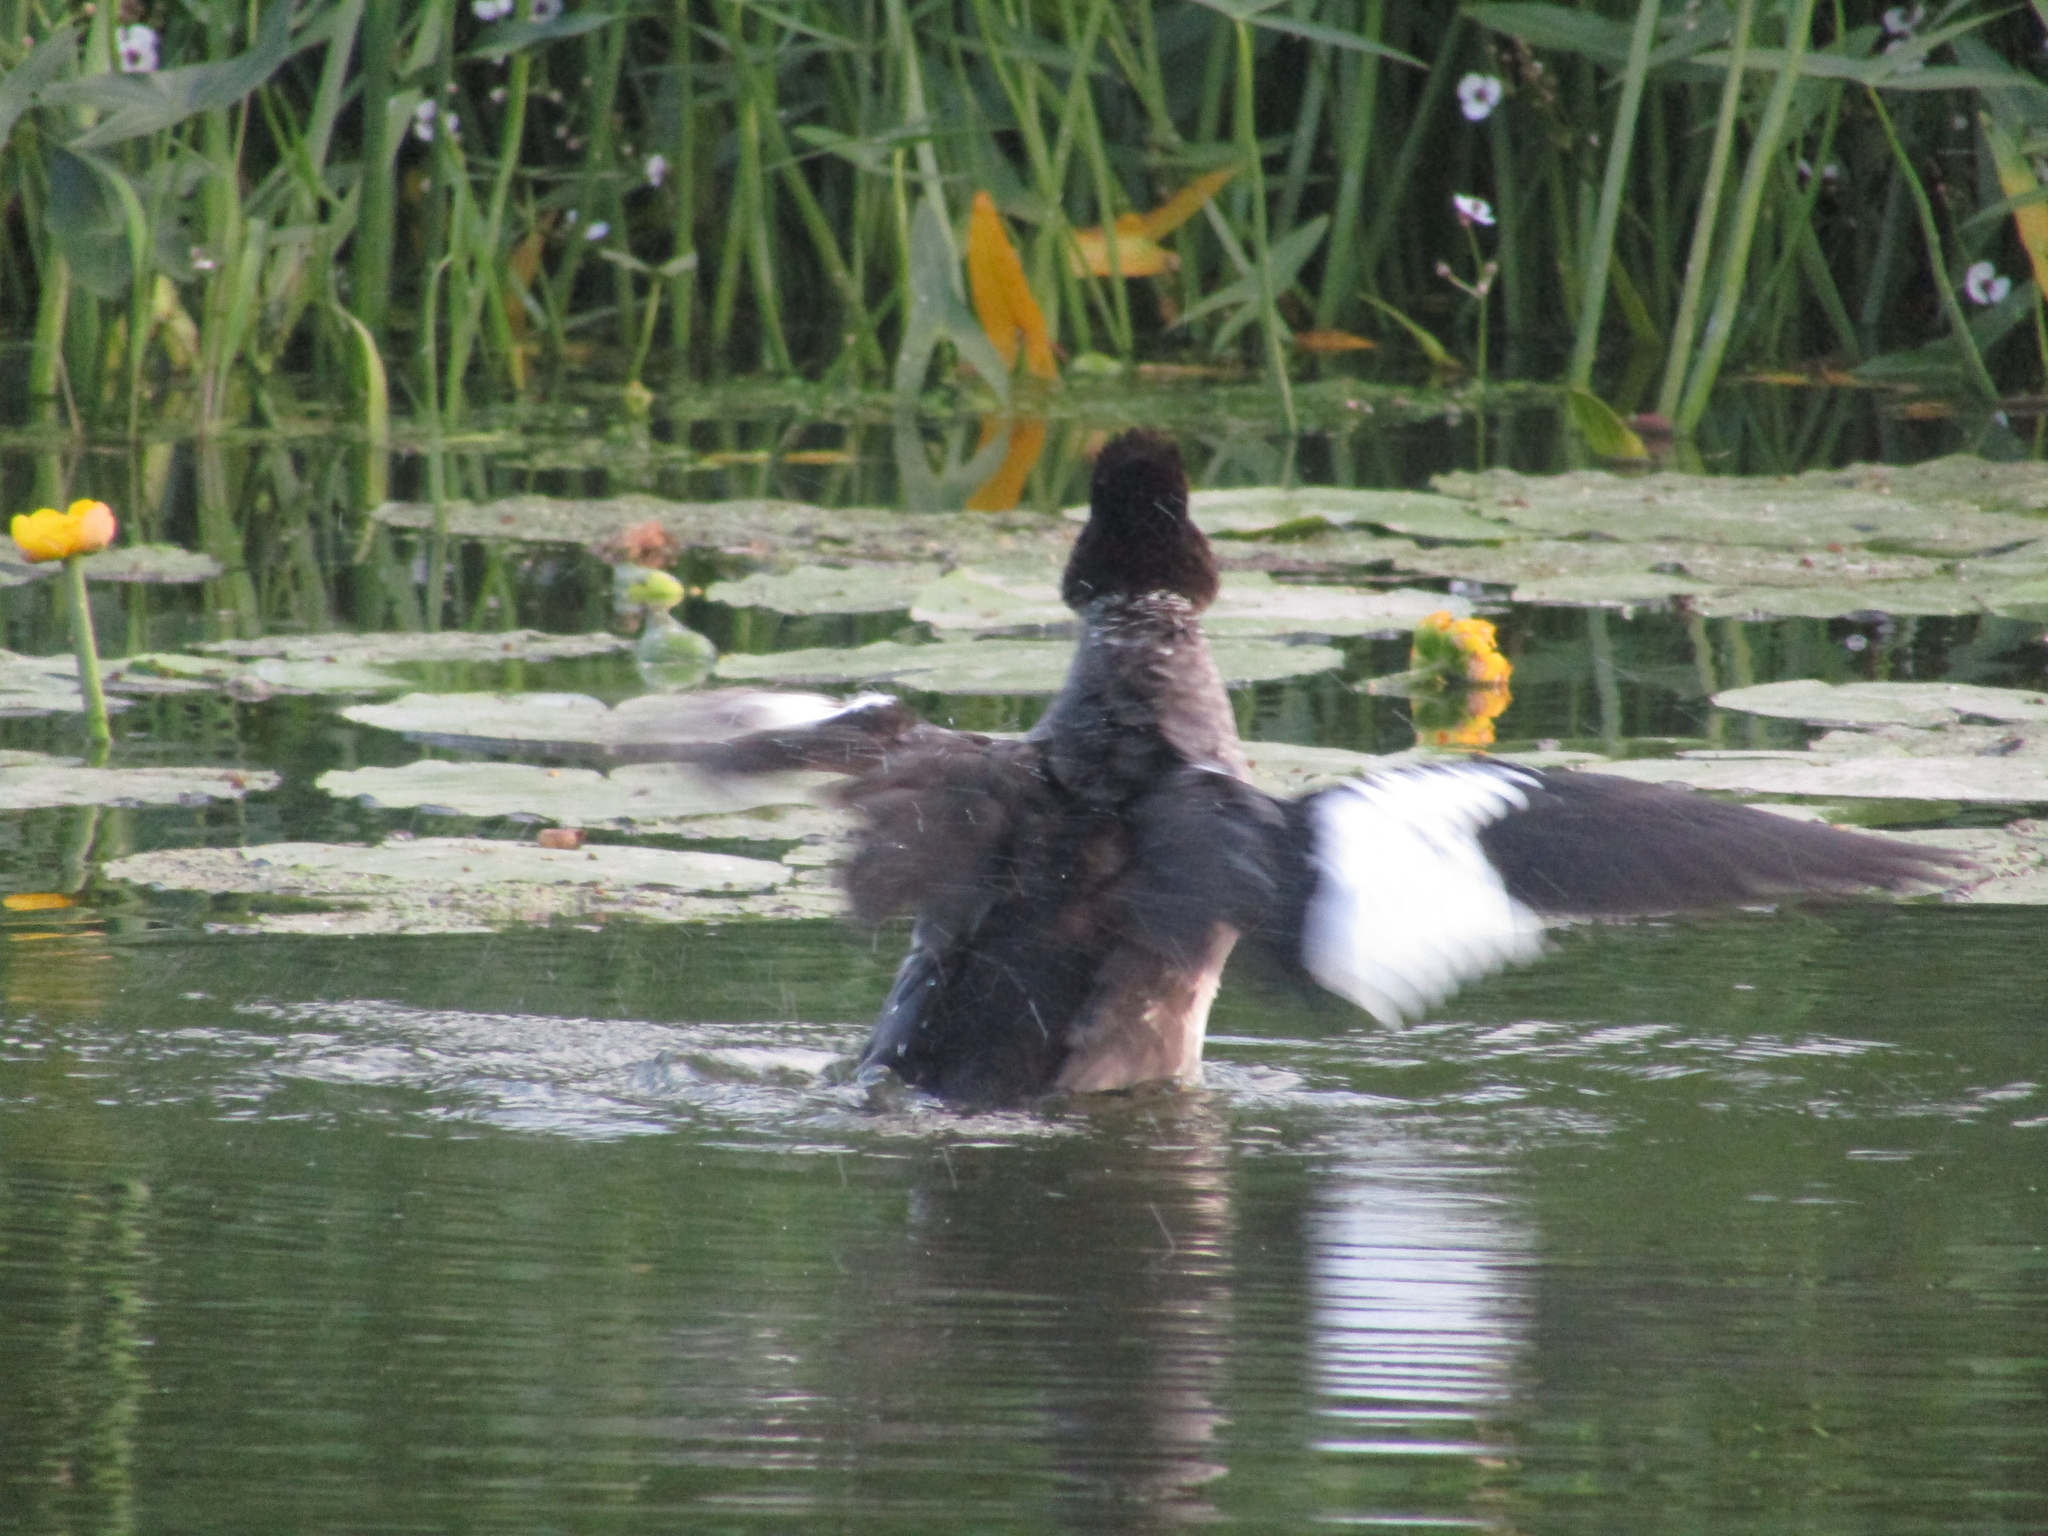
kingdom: Animalia
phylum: Chordata
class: Aves
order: Anseriformes
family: Anatidae
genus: Bucephala
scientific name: Bucephala clangula
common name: Common goldeneye
